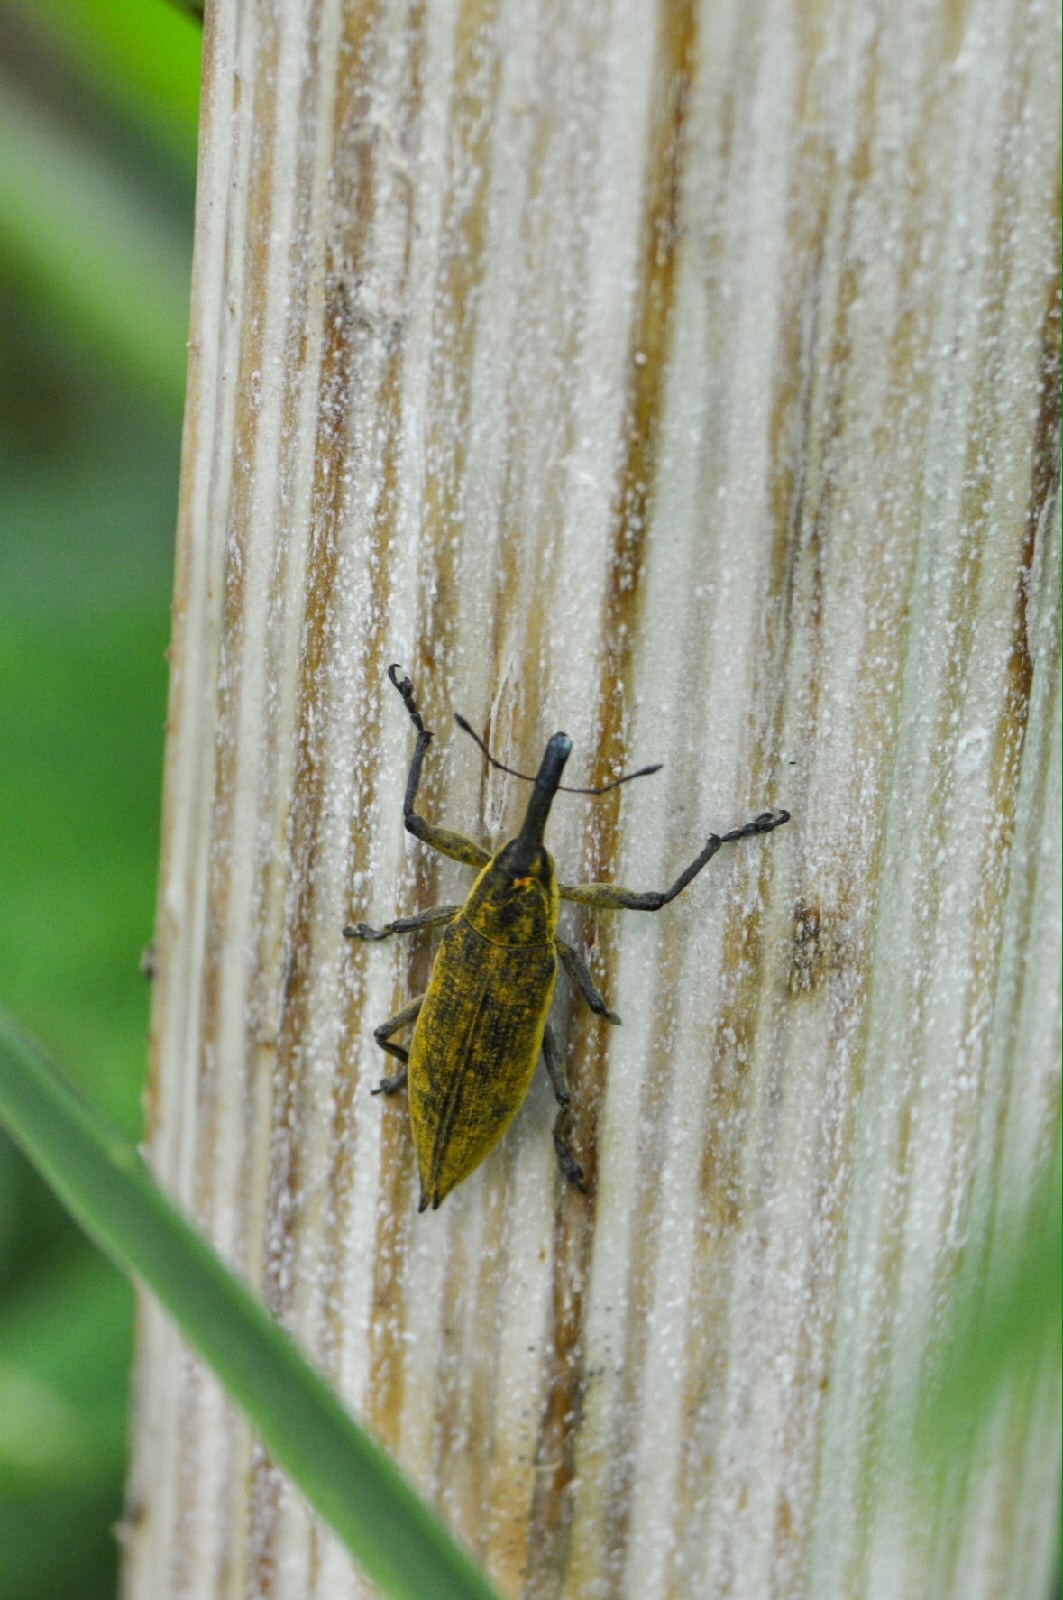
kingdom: Animalia
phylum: Arthropoda
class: Insecta
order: Coleoptera
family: Curculionidae
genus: Lixus
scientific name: Lixus iridis
